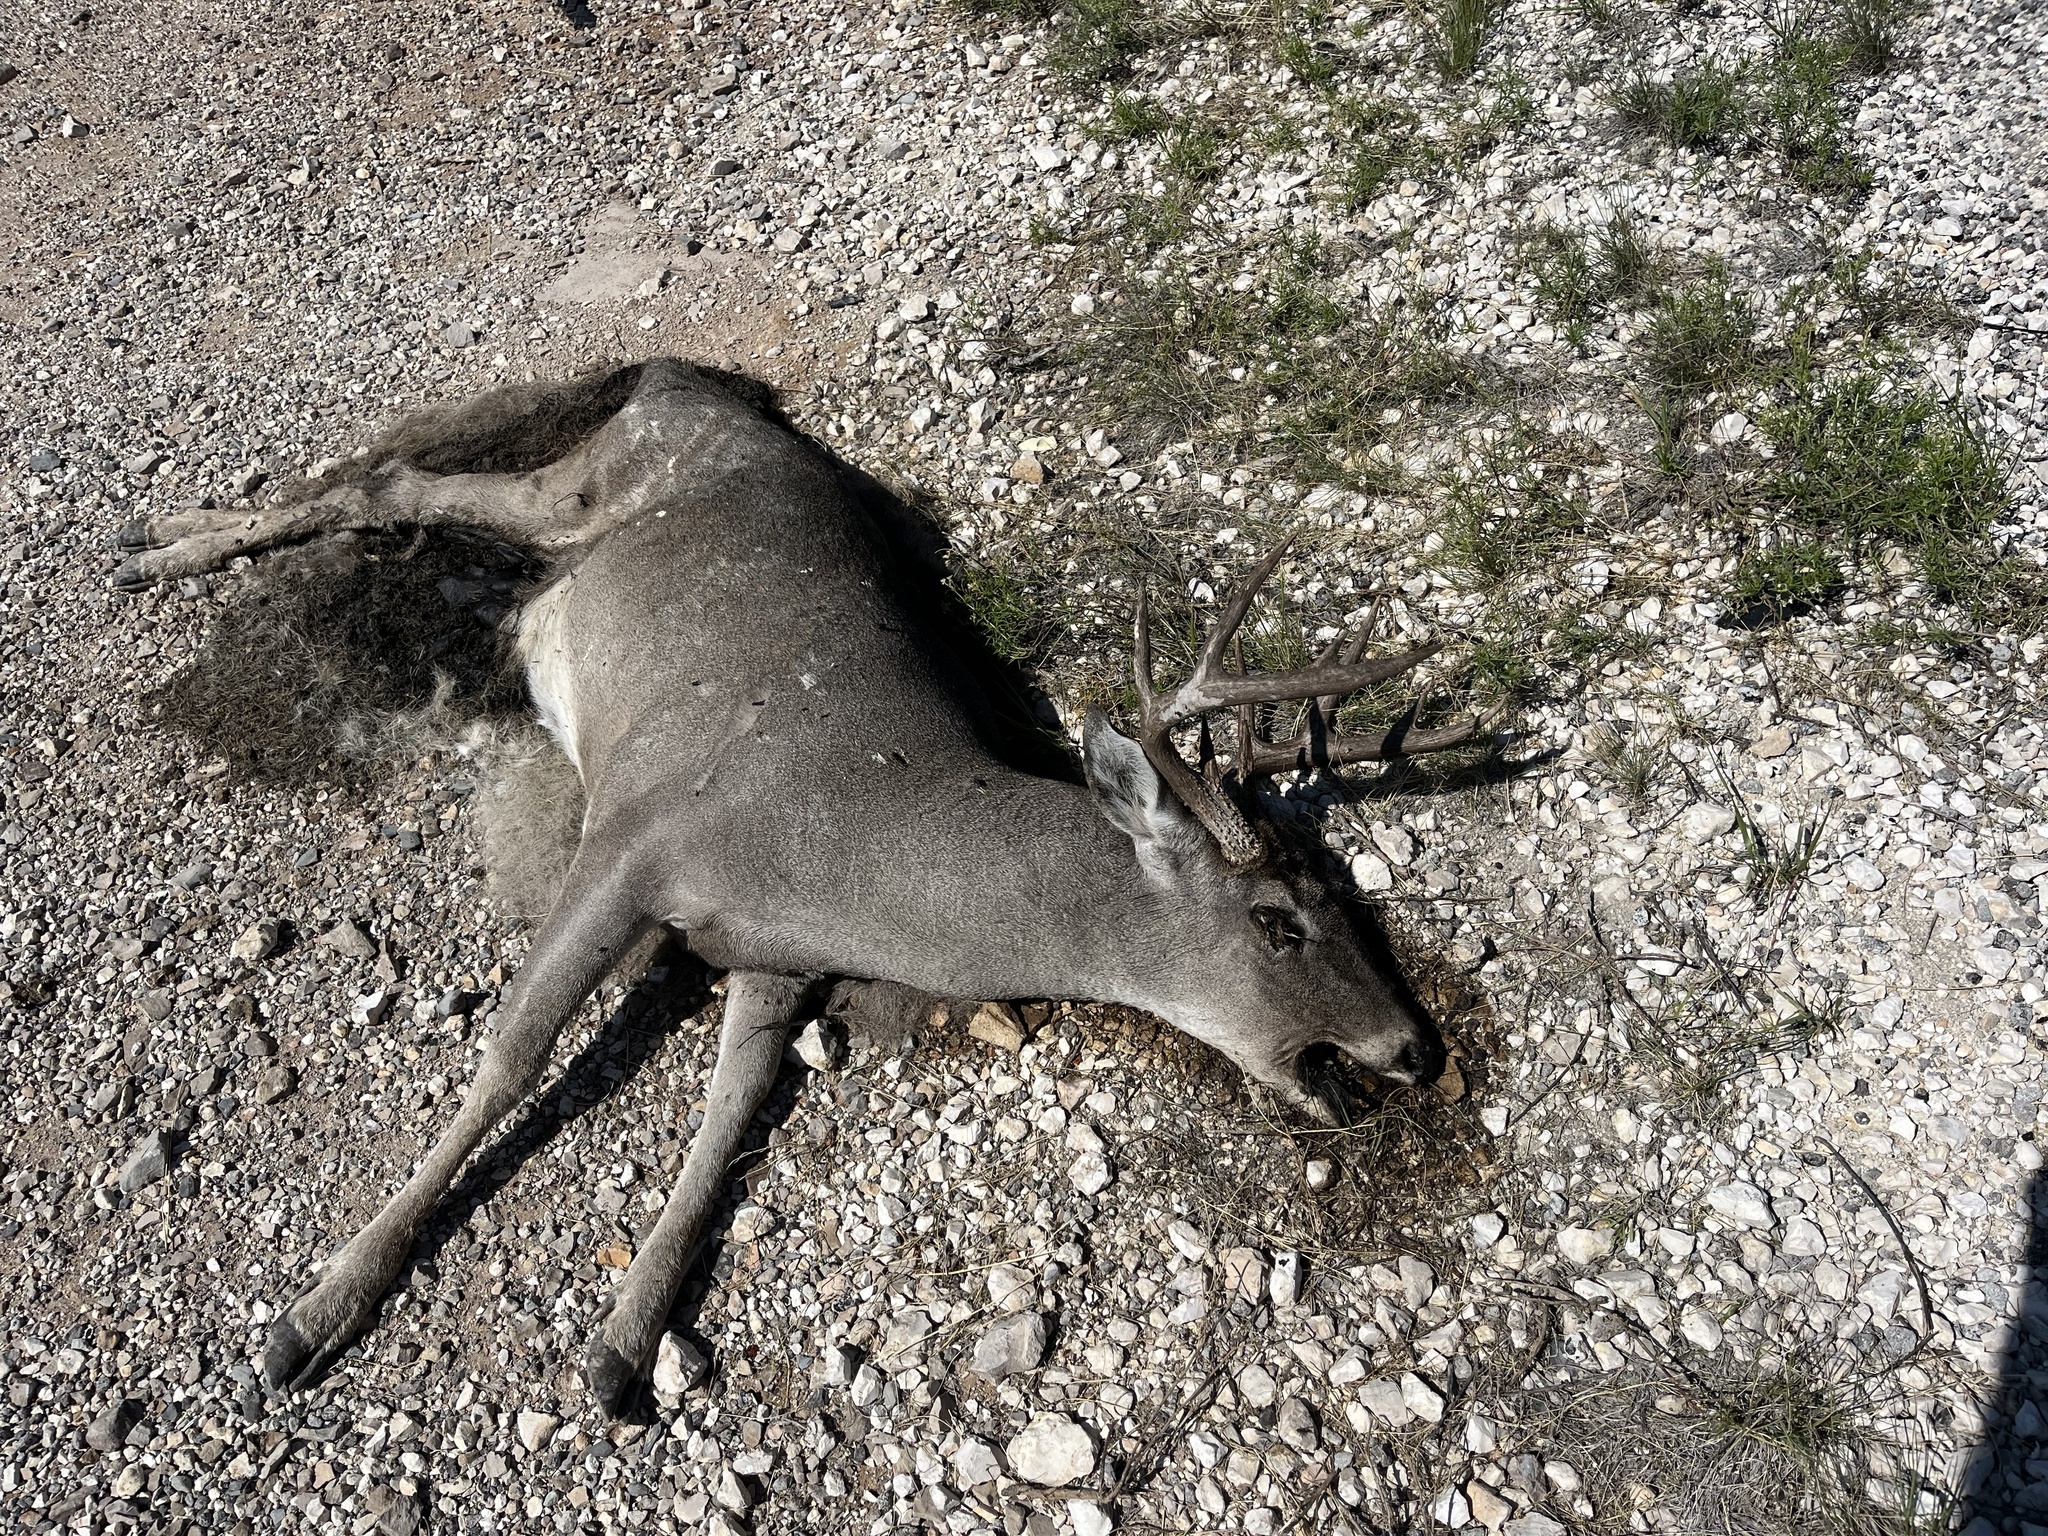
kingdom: Animalia
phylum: Chordata
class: Mammalia
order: Artiodactyla
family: Cervidae
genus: Odocoileus
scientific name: Odocoileus virginianus
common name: White-tailed deer
